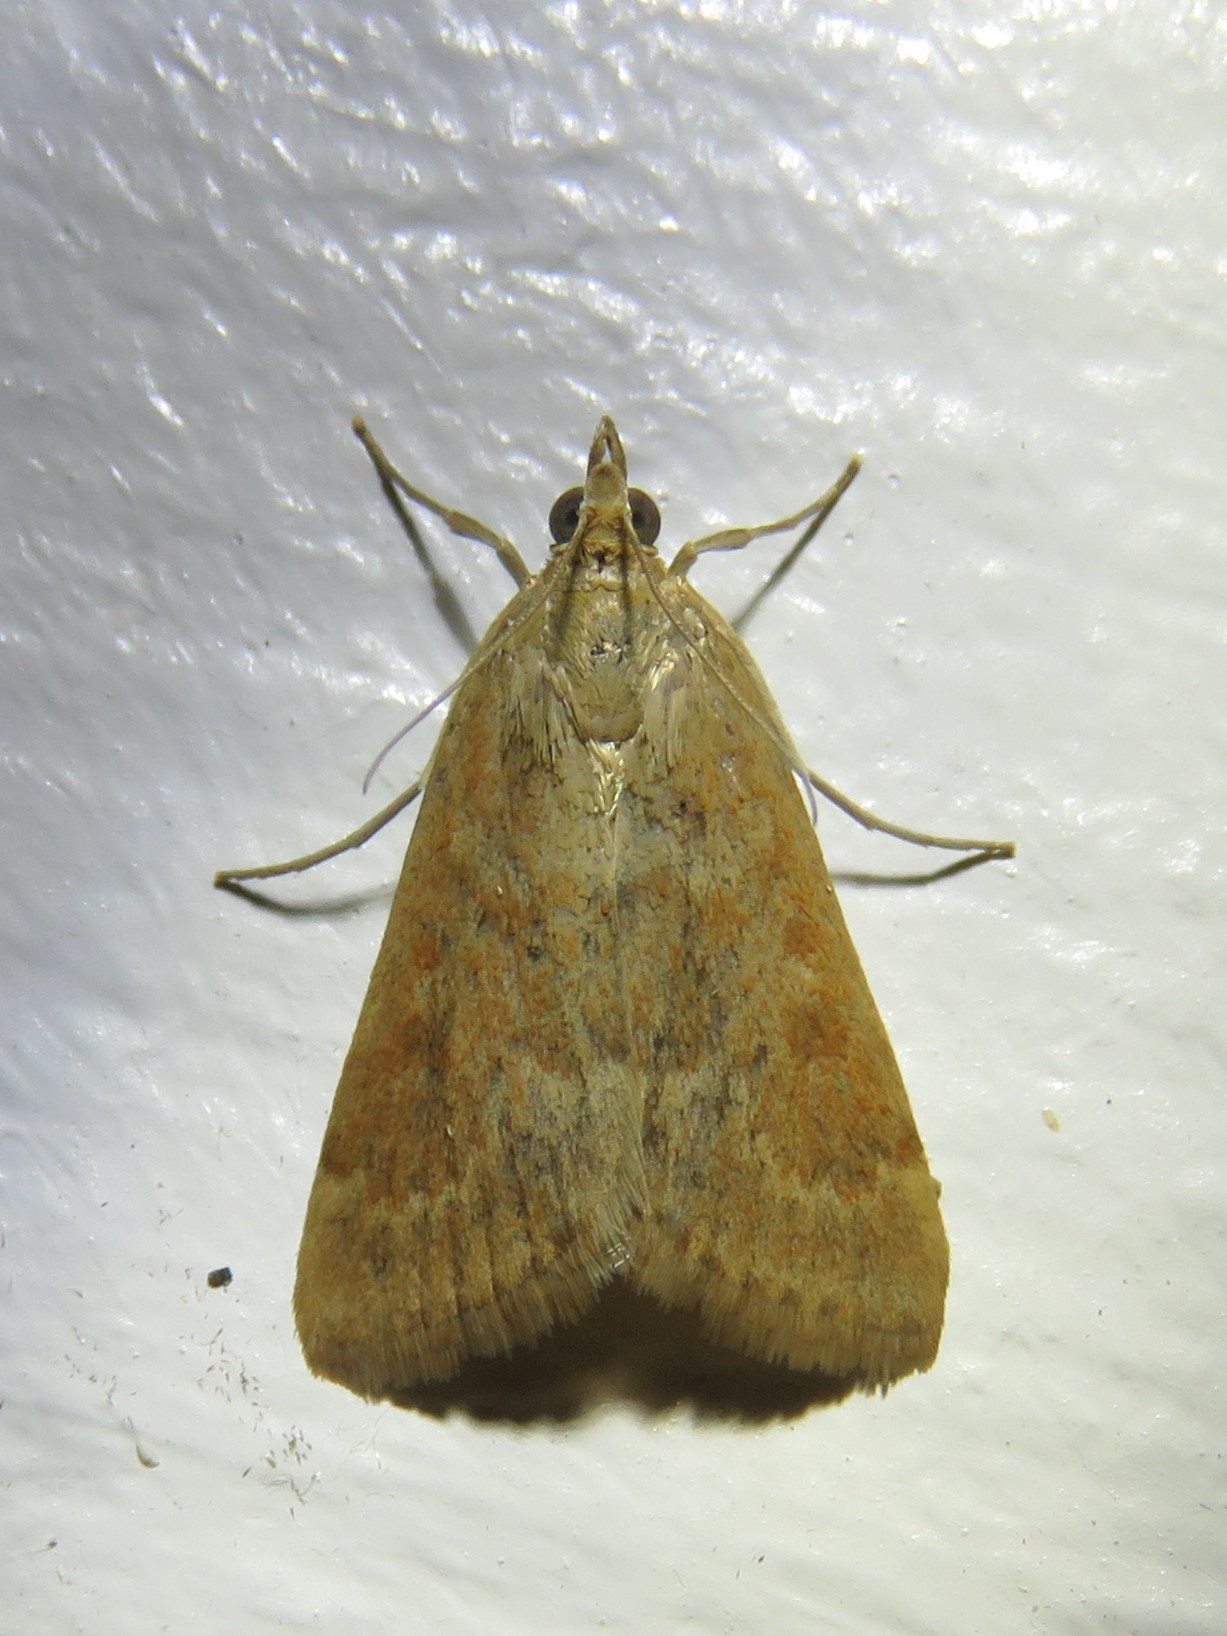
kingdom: Animalia
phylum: Arthropoda
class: Insecta
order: Lepidoptera
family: Crambidae
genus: Achyra
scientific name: Achyra rantalis
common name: Garden webworm
